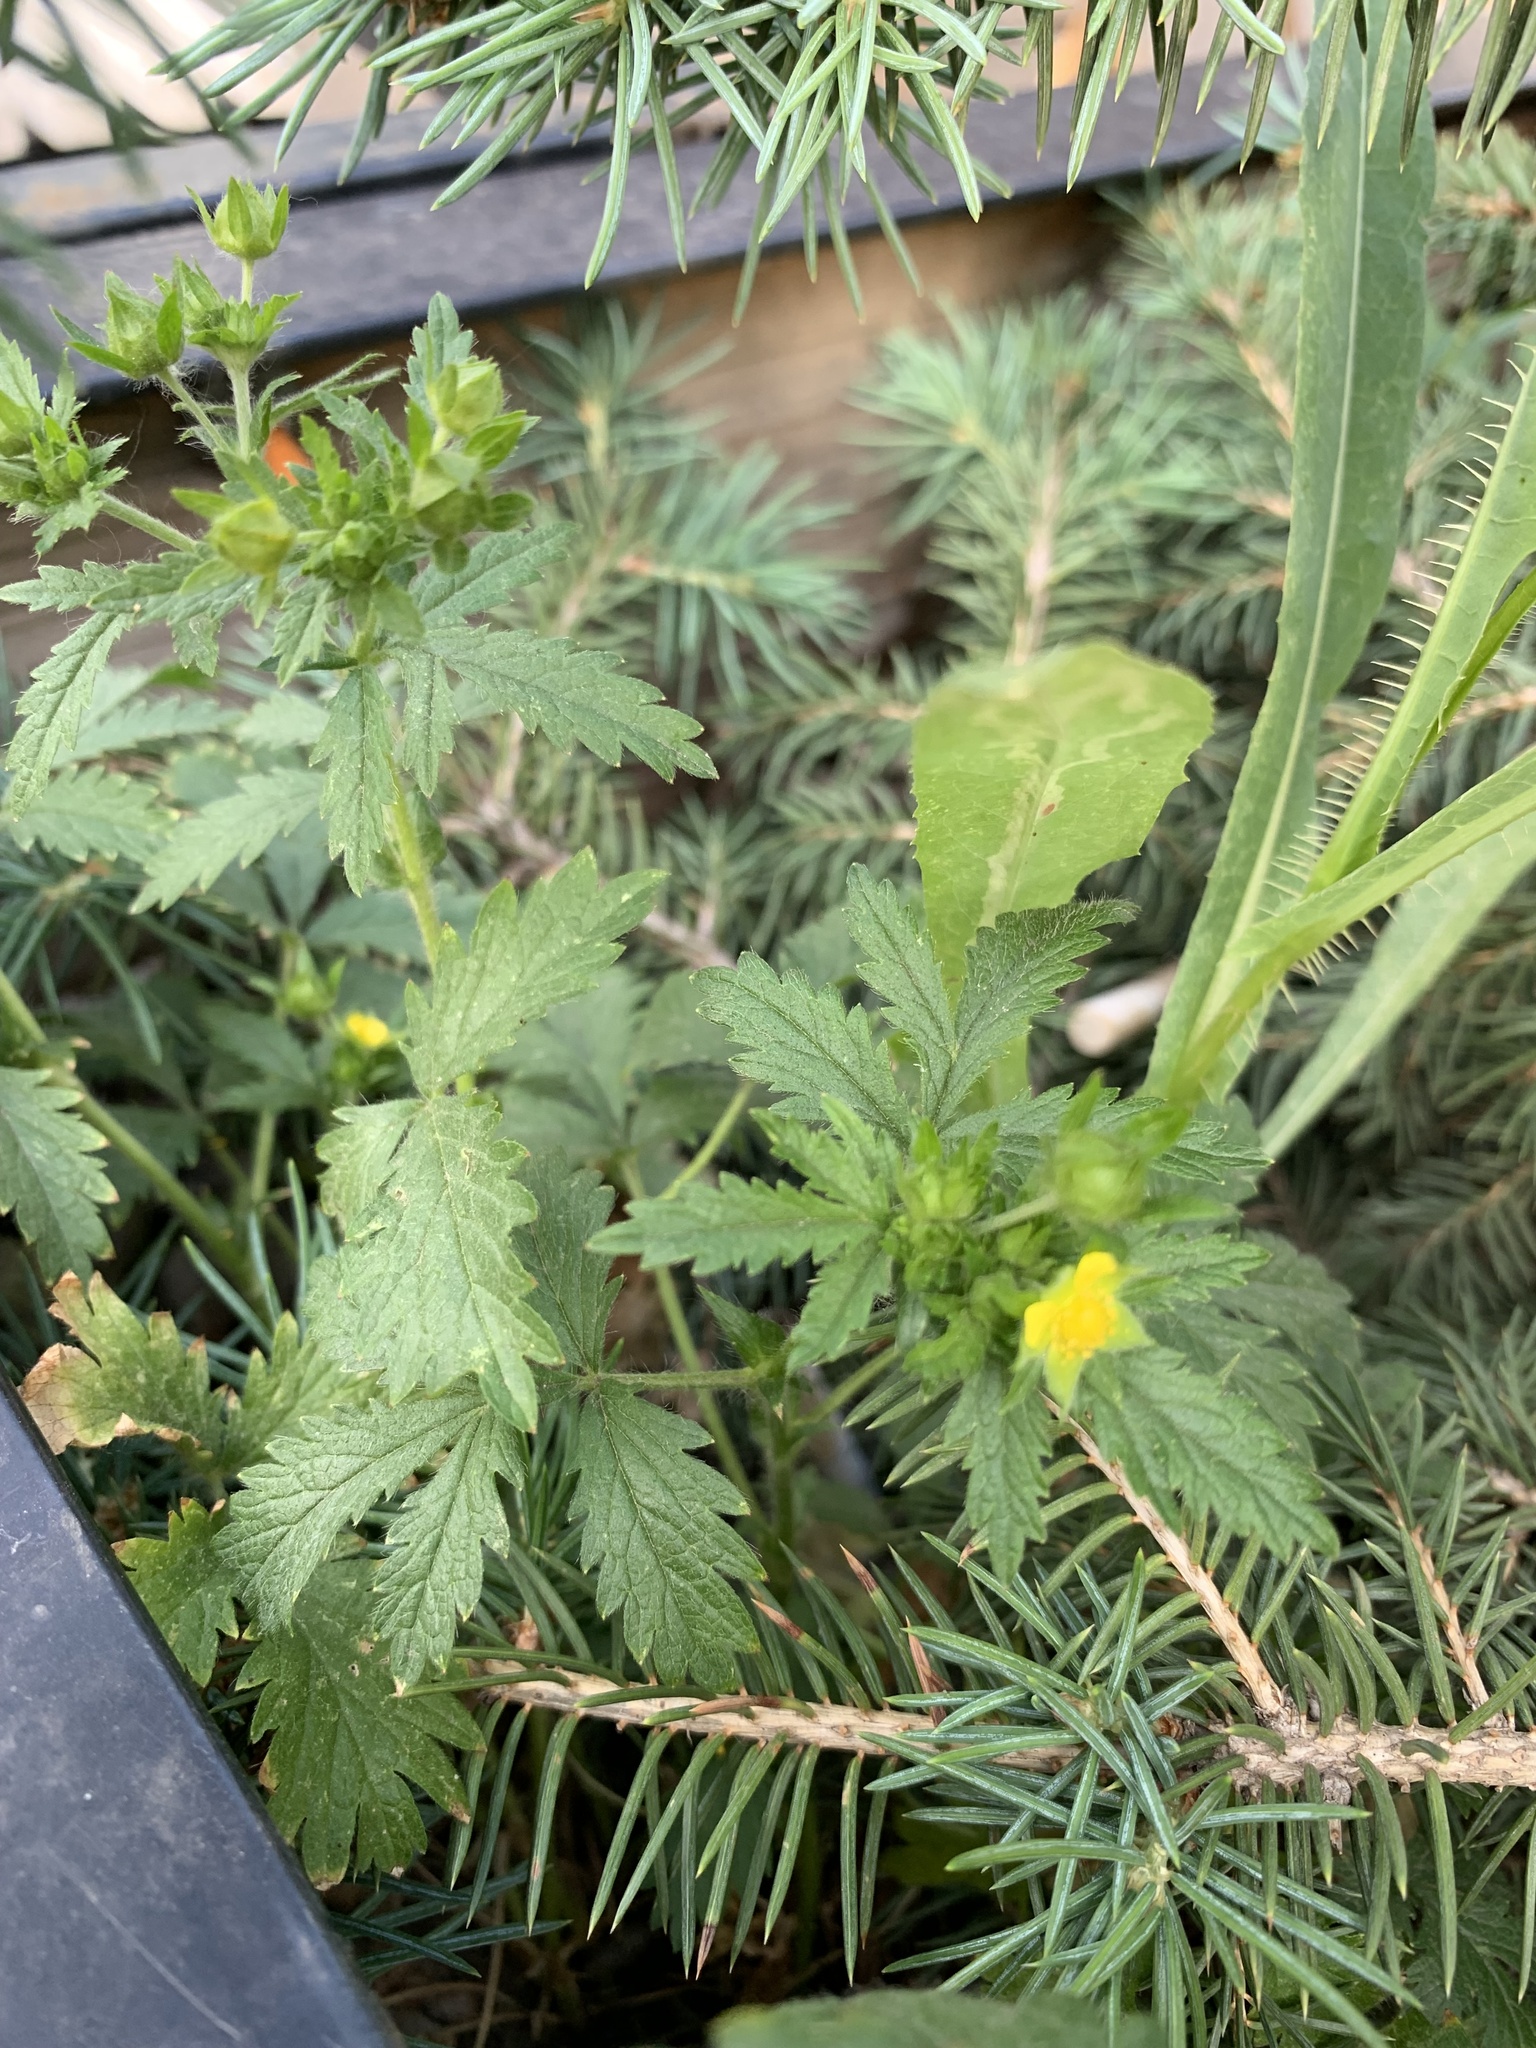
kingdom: Plantae
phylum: Tracheophyta
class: Magnoliopsida
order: Rosales
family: Rosaceae
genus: Potentilla
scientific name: Potentilla norvegica
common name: Ternate-leaved cinquefoil
